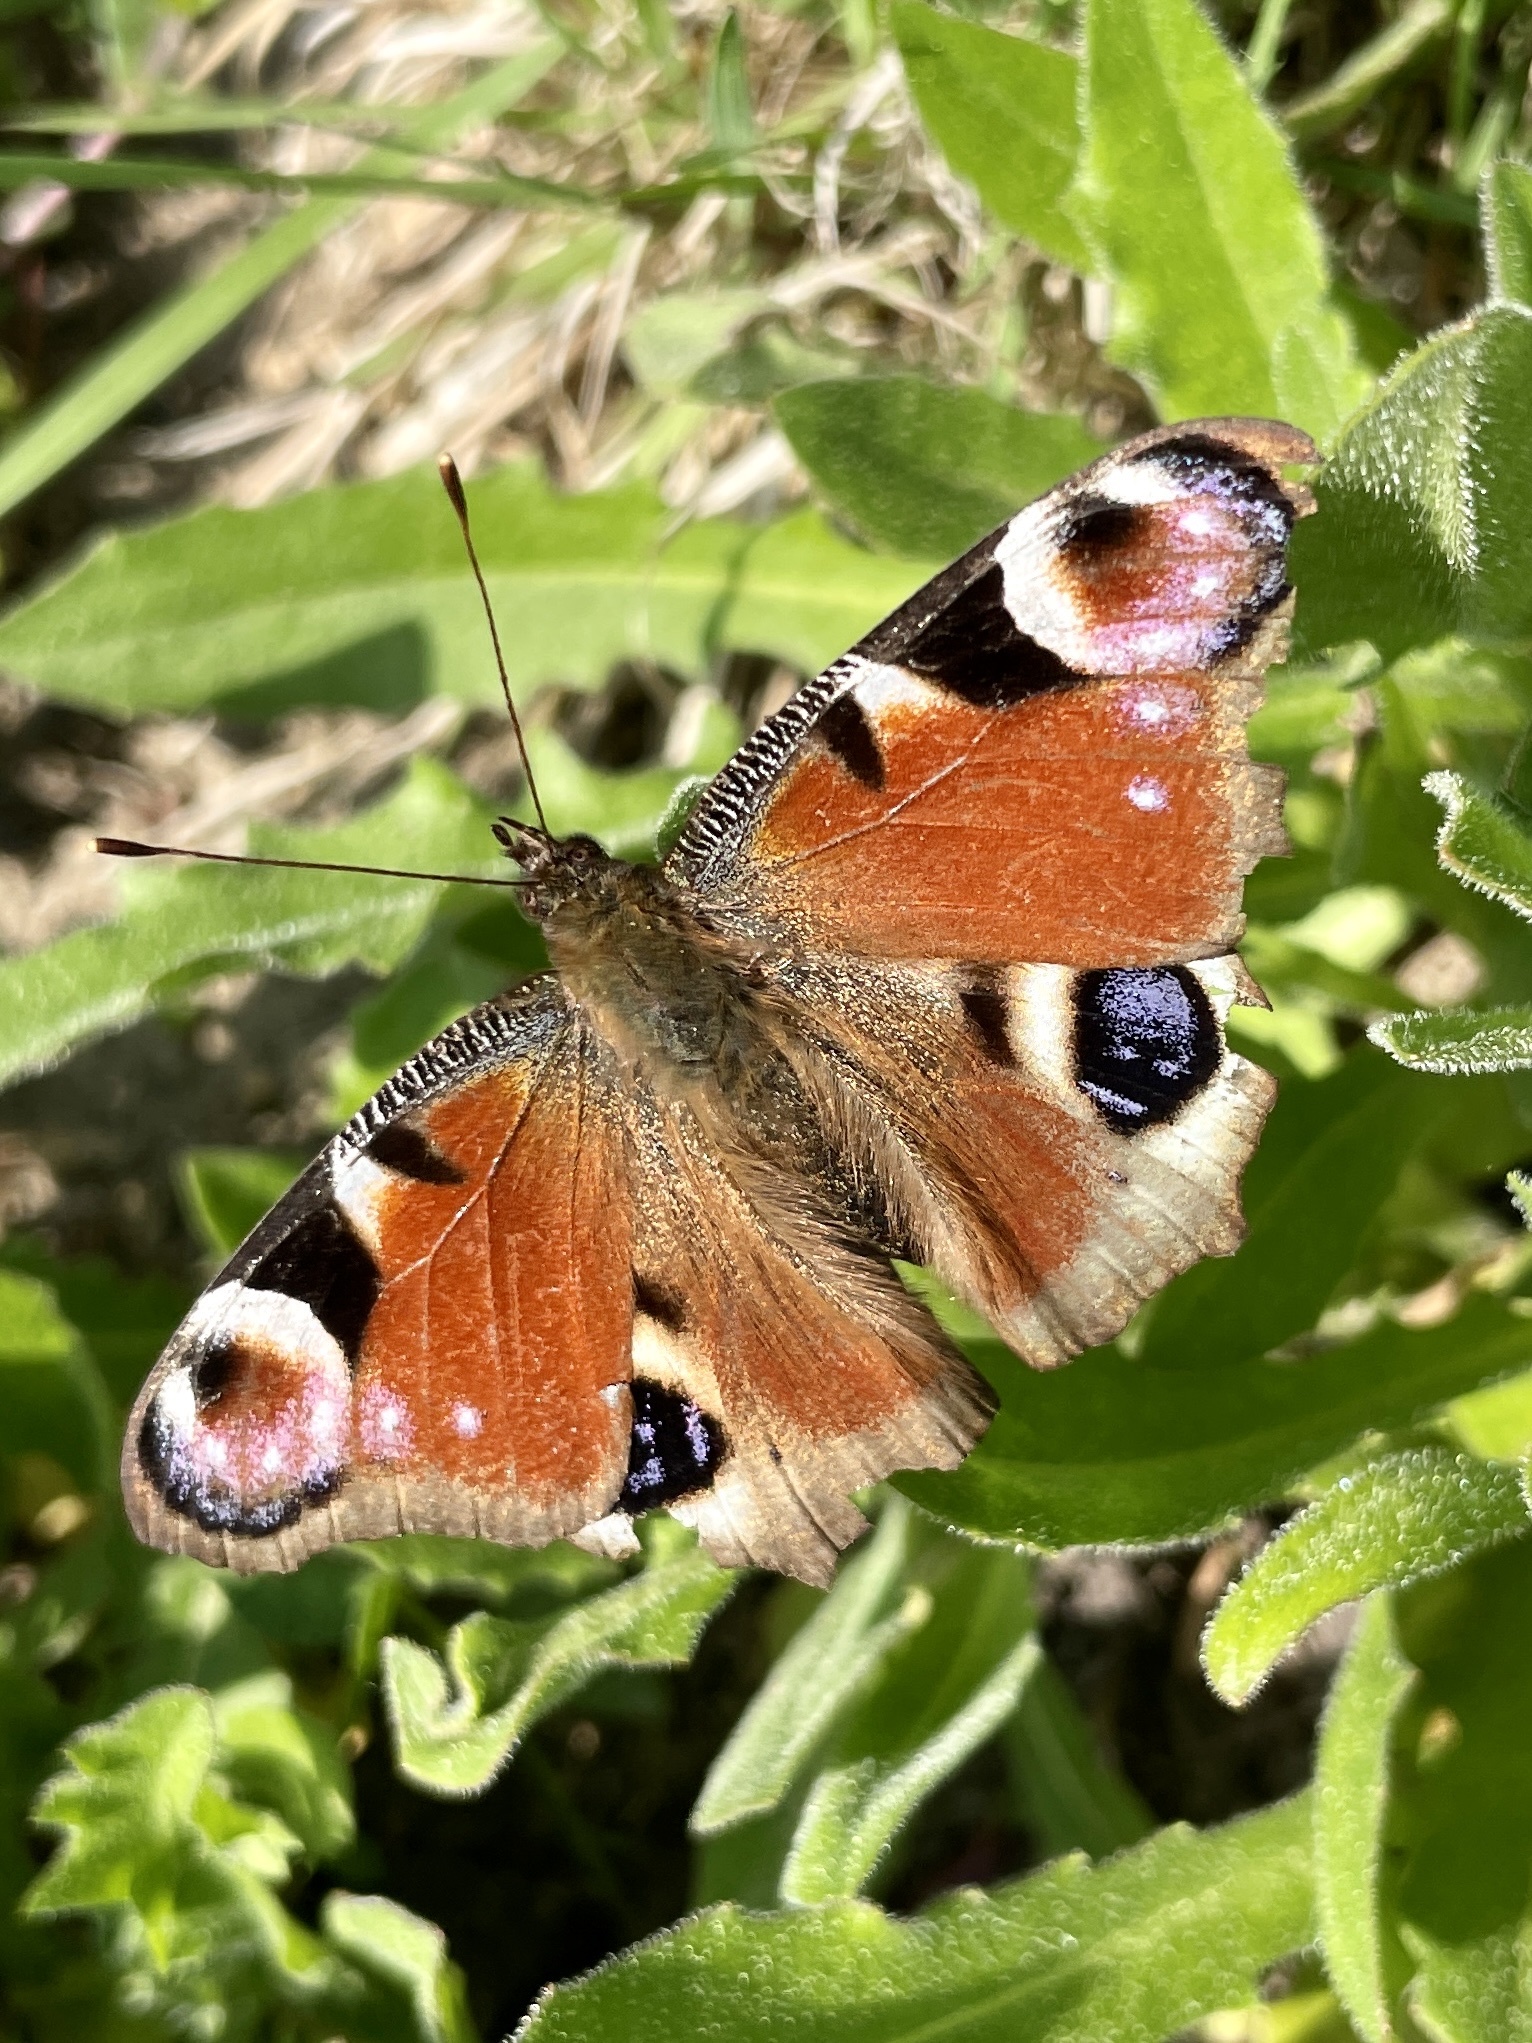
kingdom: Animalia
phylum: Arthropoda
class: Insecta
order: Lepidoptera
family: Nymphalidae
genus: Aglais
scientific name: Aglais io
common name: Peacock
